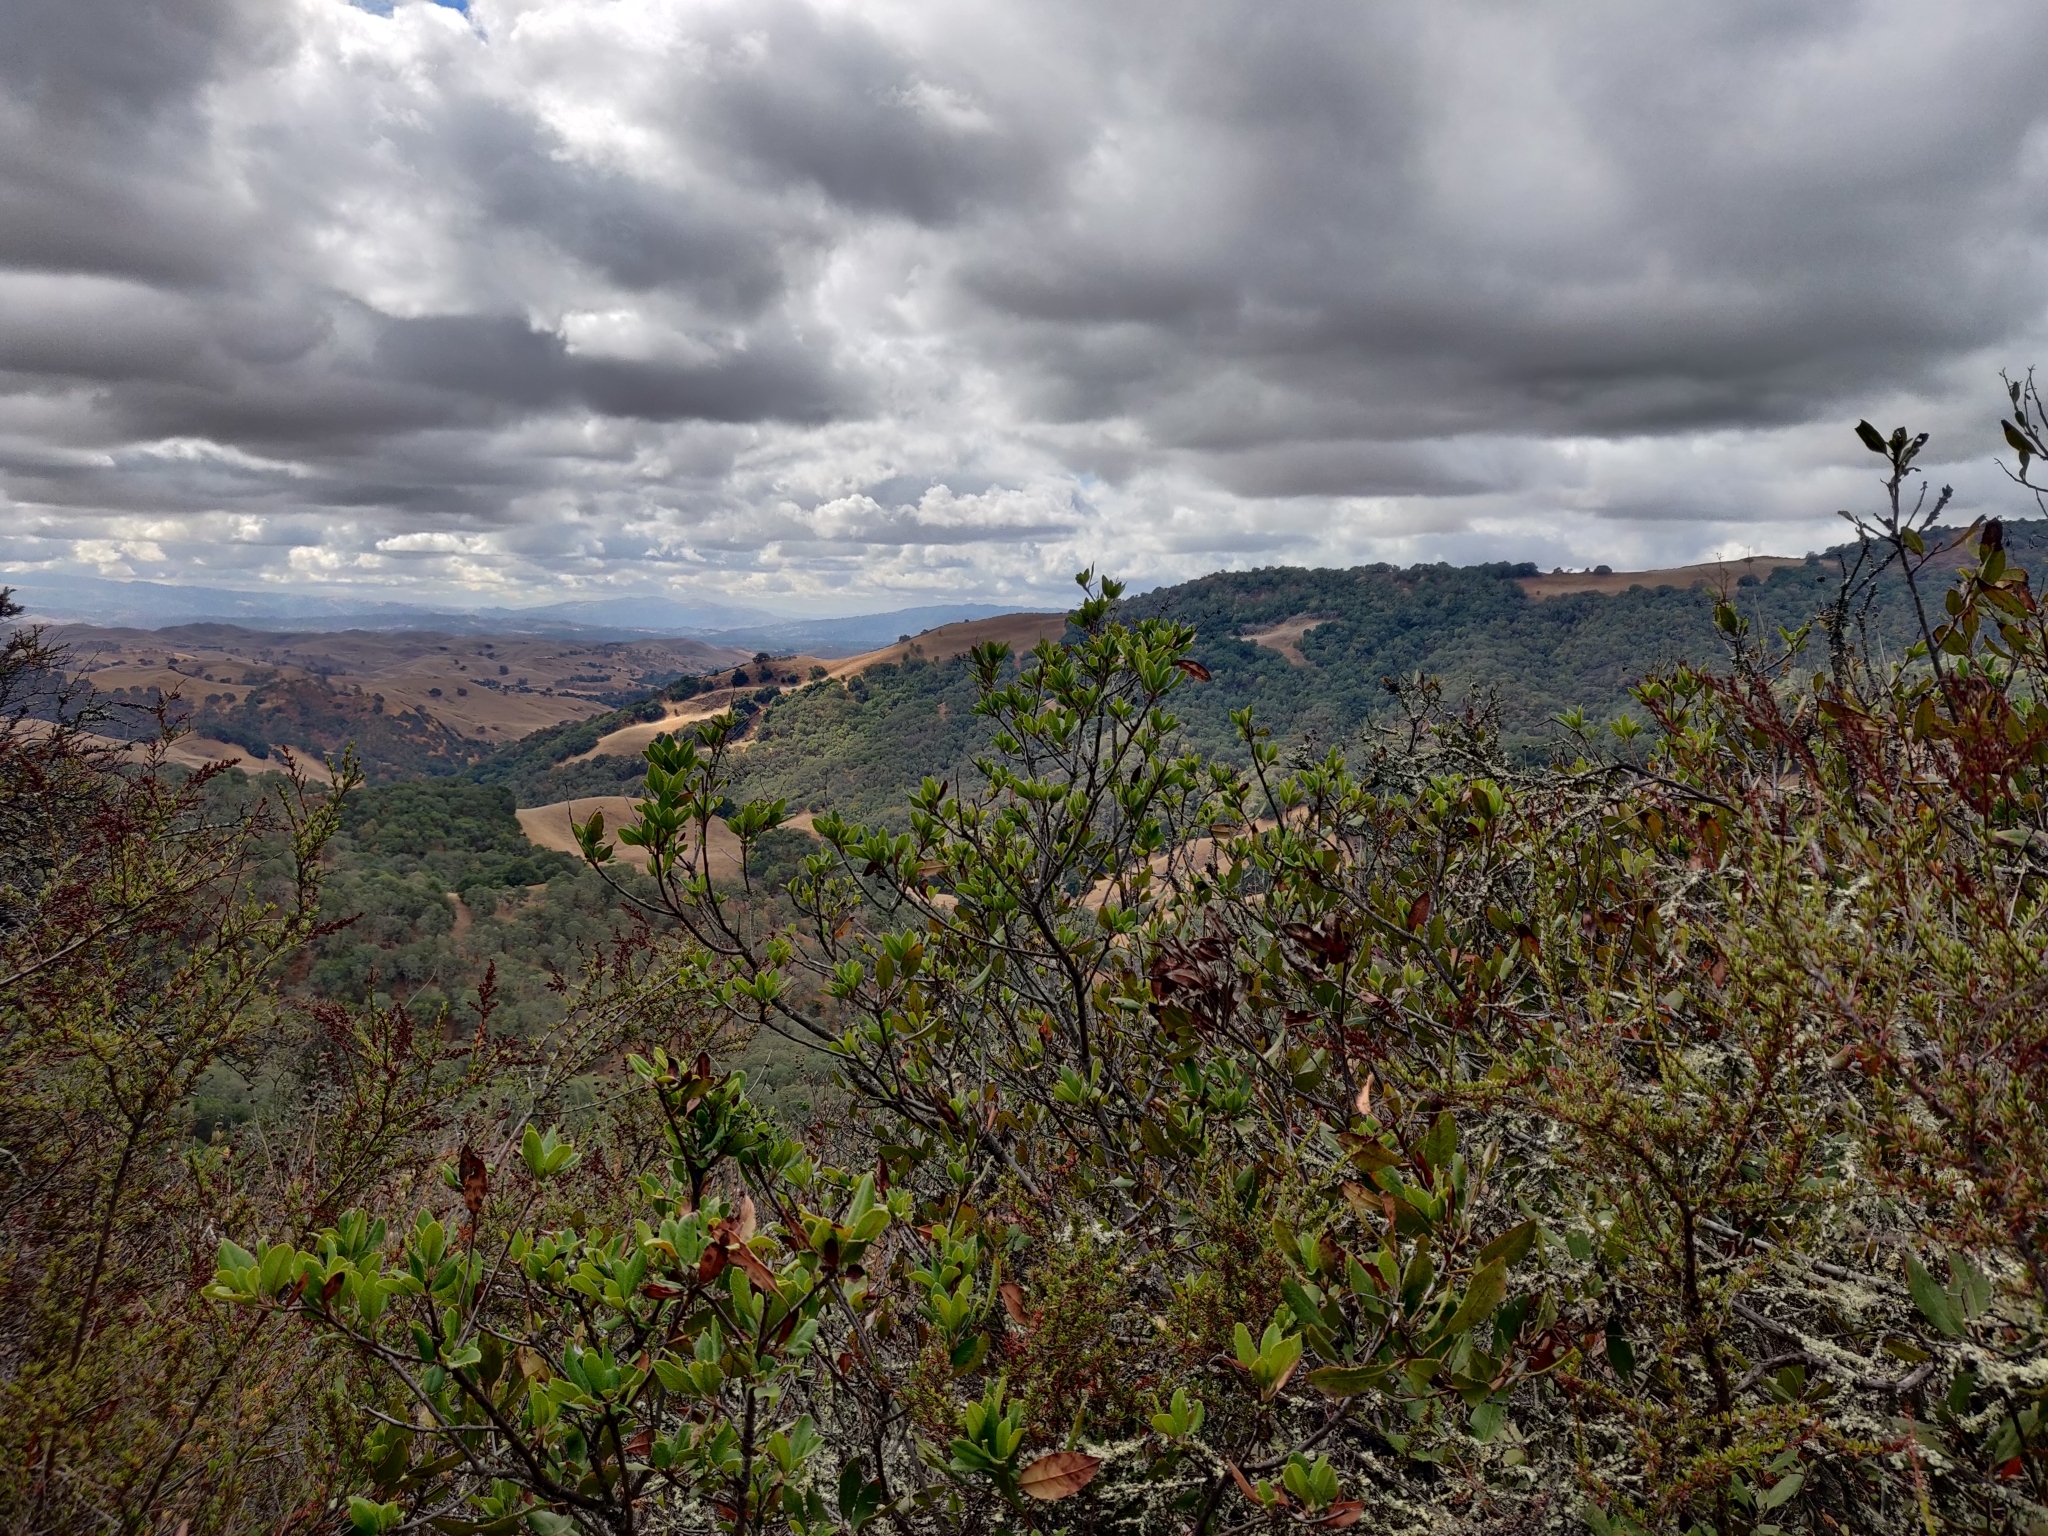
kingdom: Plantae
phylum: Tracheophyta
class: Magnoliopsida
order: Rosales
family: Rosaceae
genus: Heteromeles
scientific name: Heteromeles arbutifolia
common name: California-holly
